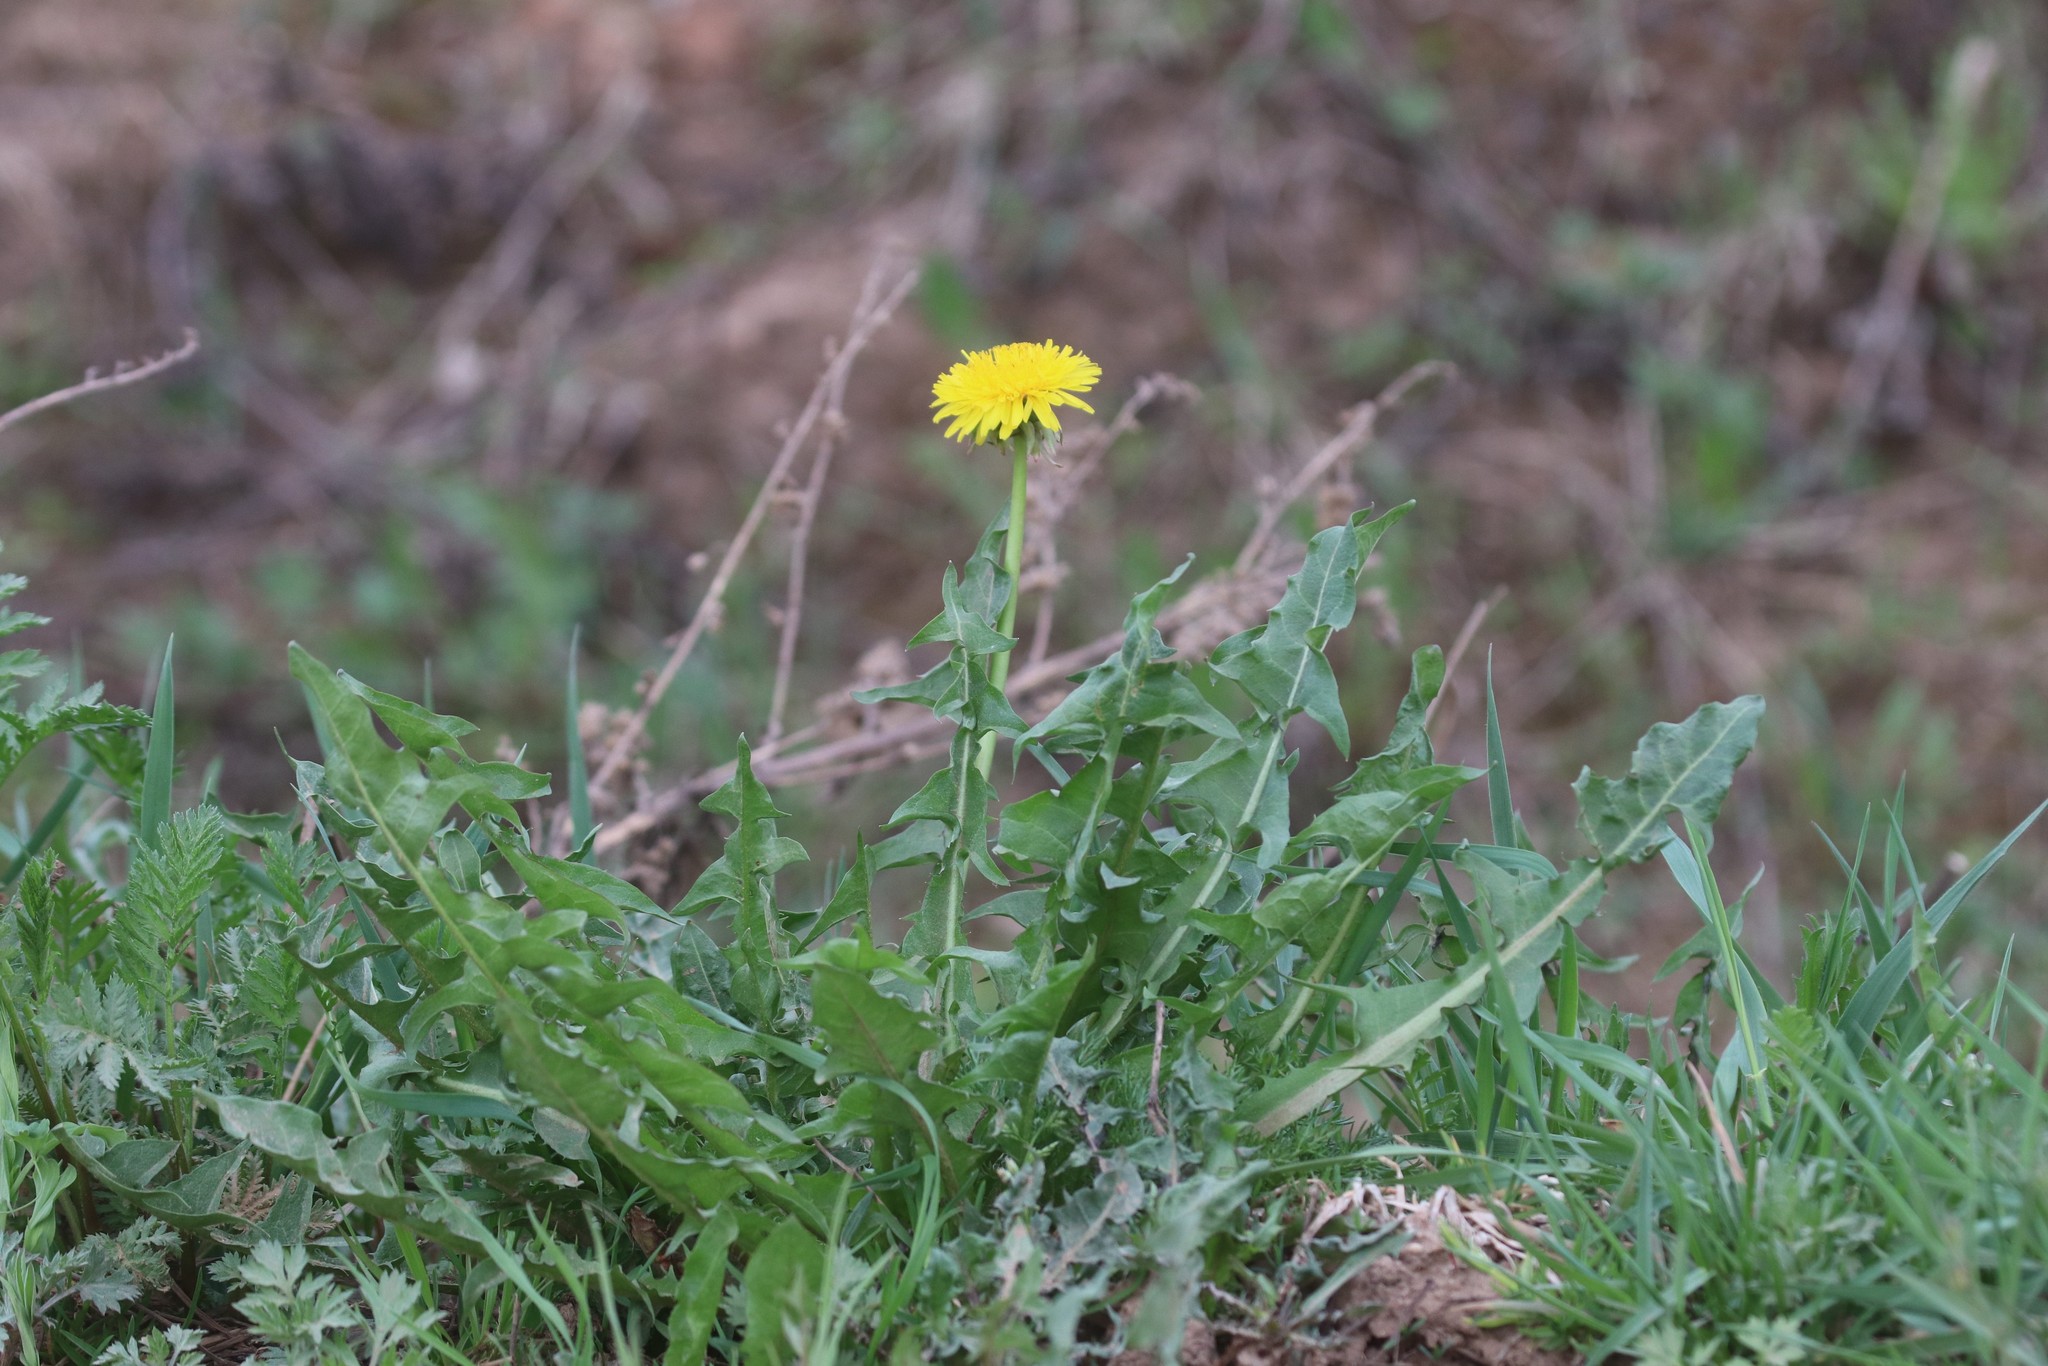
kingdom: Plantae
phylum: Tracheophyta
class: Magnoliopsida
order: Asterales
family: Asteraceae
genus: Taraxacum
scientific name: Taraxacum officinale
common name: Common dandelion
